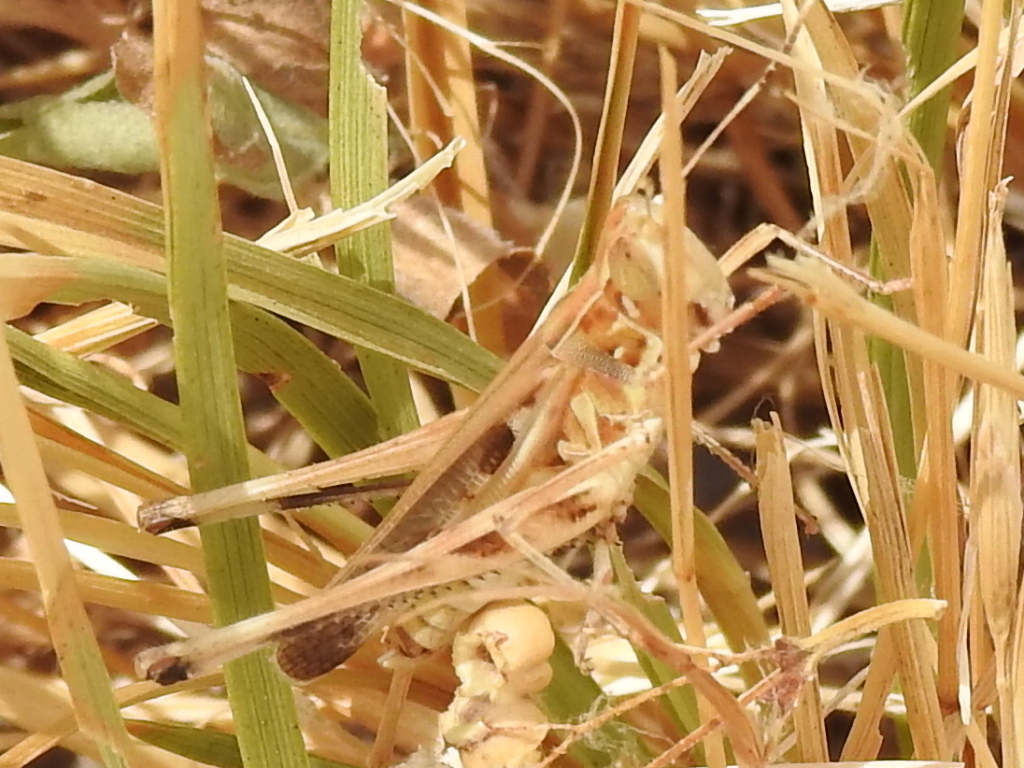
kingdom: Animalia
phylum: Arthropoda
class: Insecta
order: Orthoptera
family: Acrididae
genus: Syrbula
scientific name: Syrbula admirabilis
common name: Handsome grasshopper
